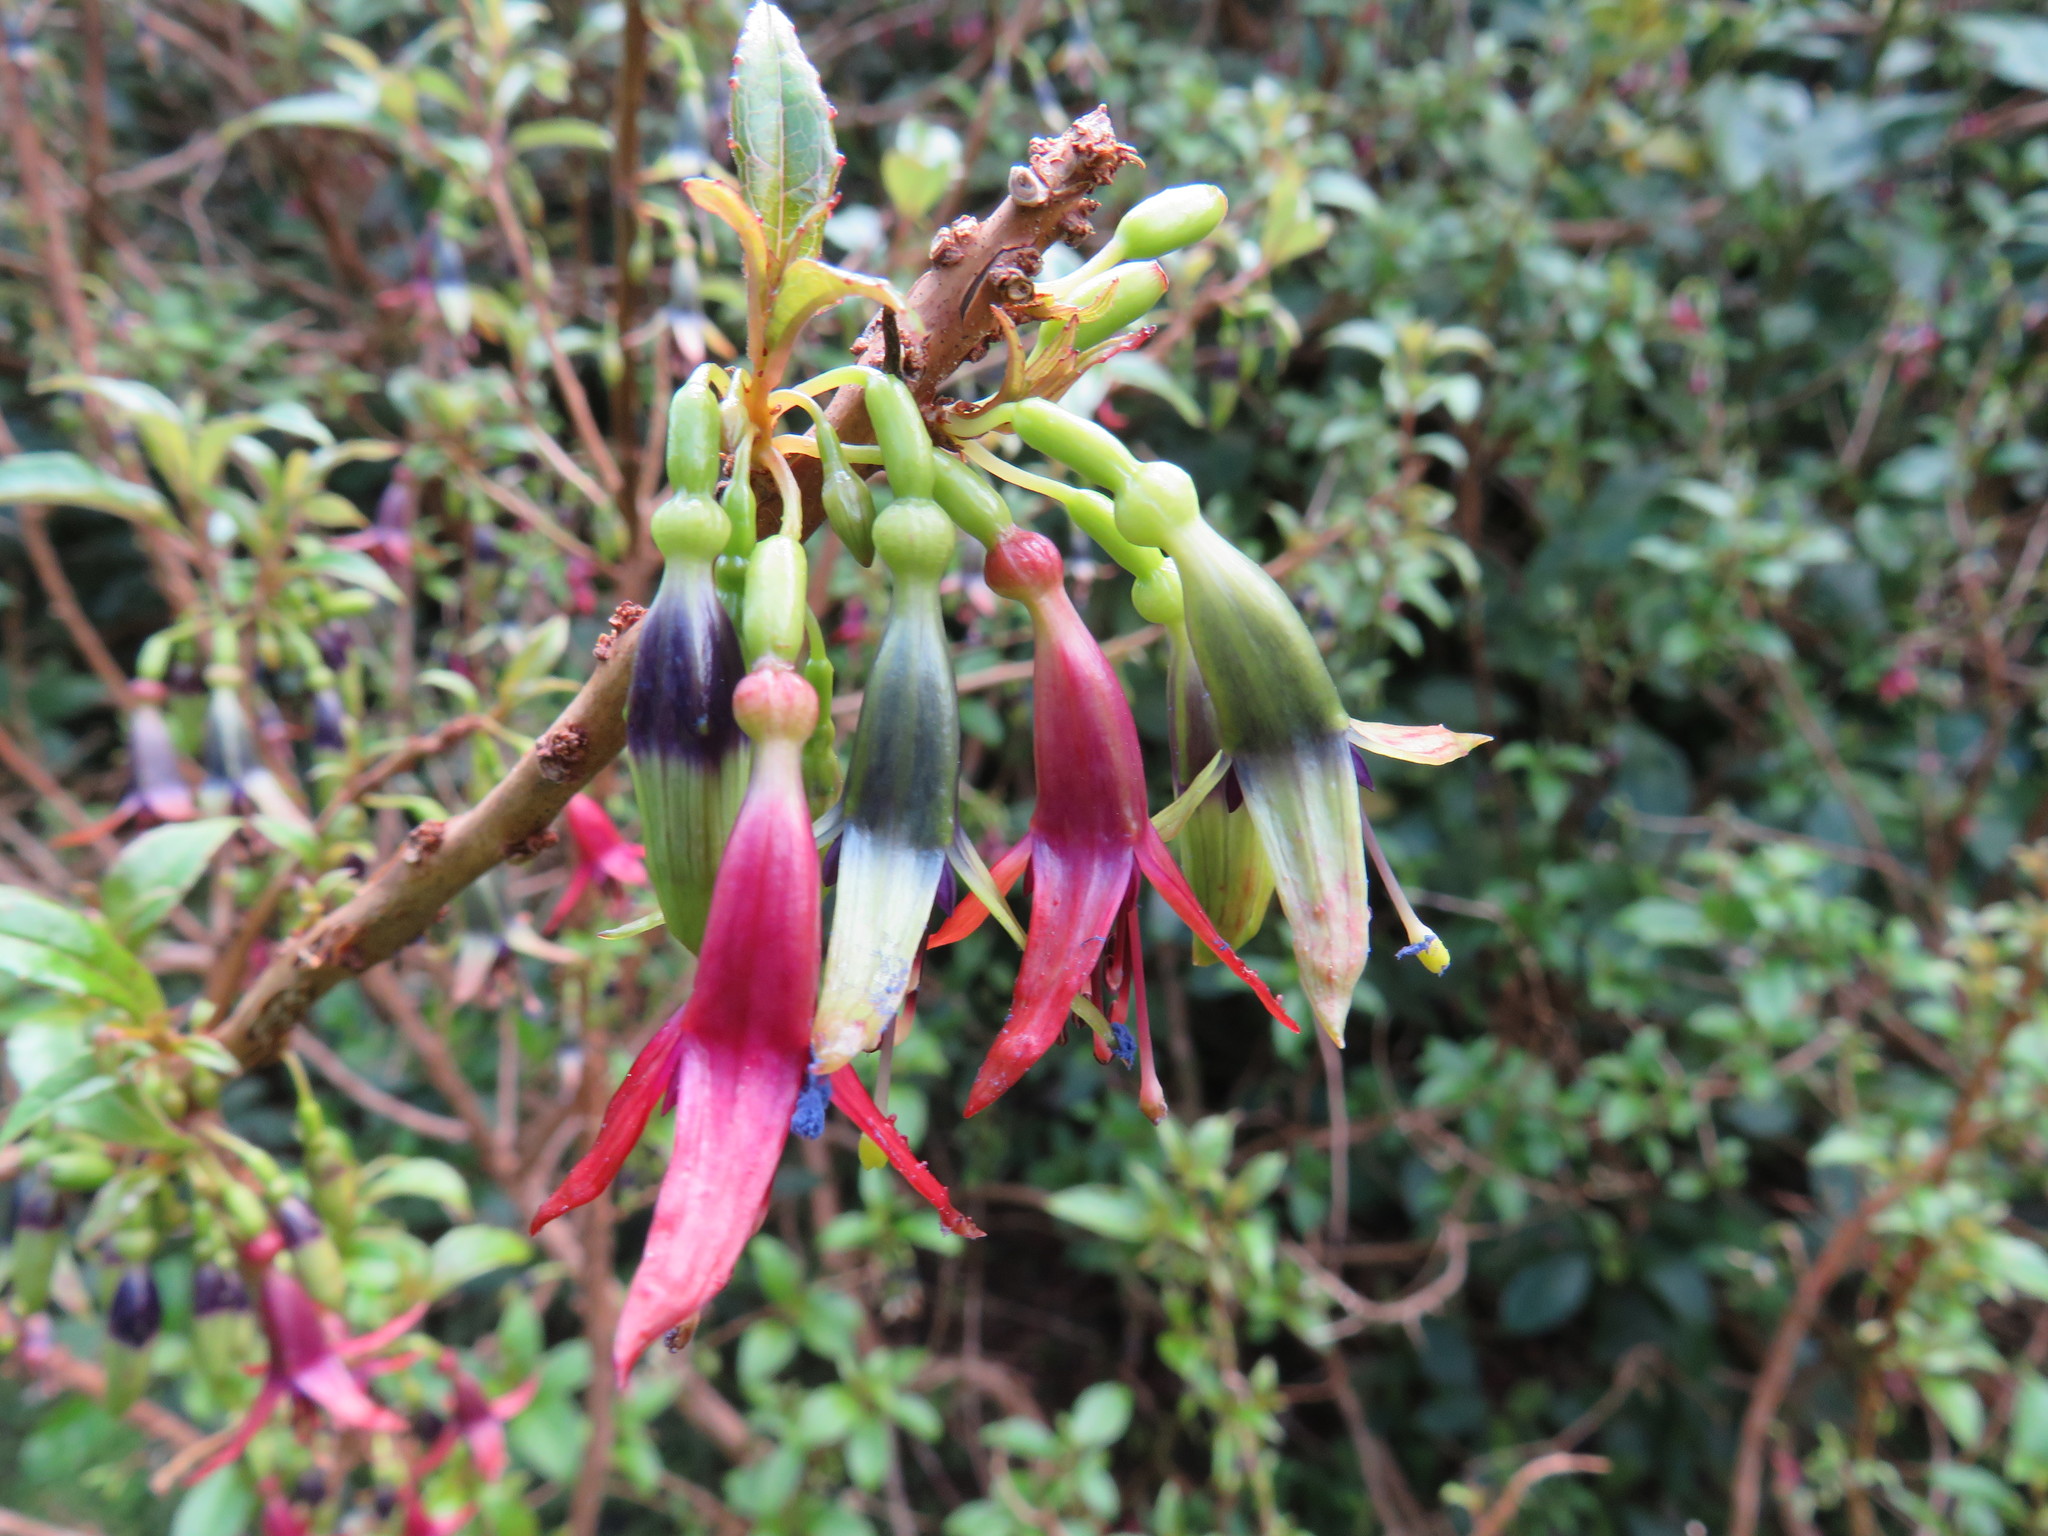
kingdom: Plantae
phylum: Tracheophyta
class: Magnoliopsida
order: Myrtales
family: Onagraceae
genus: Fuchsia
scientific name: Fuchsia excorticata
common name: Tree fuchsia
